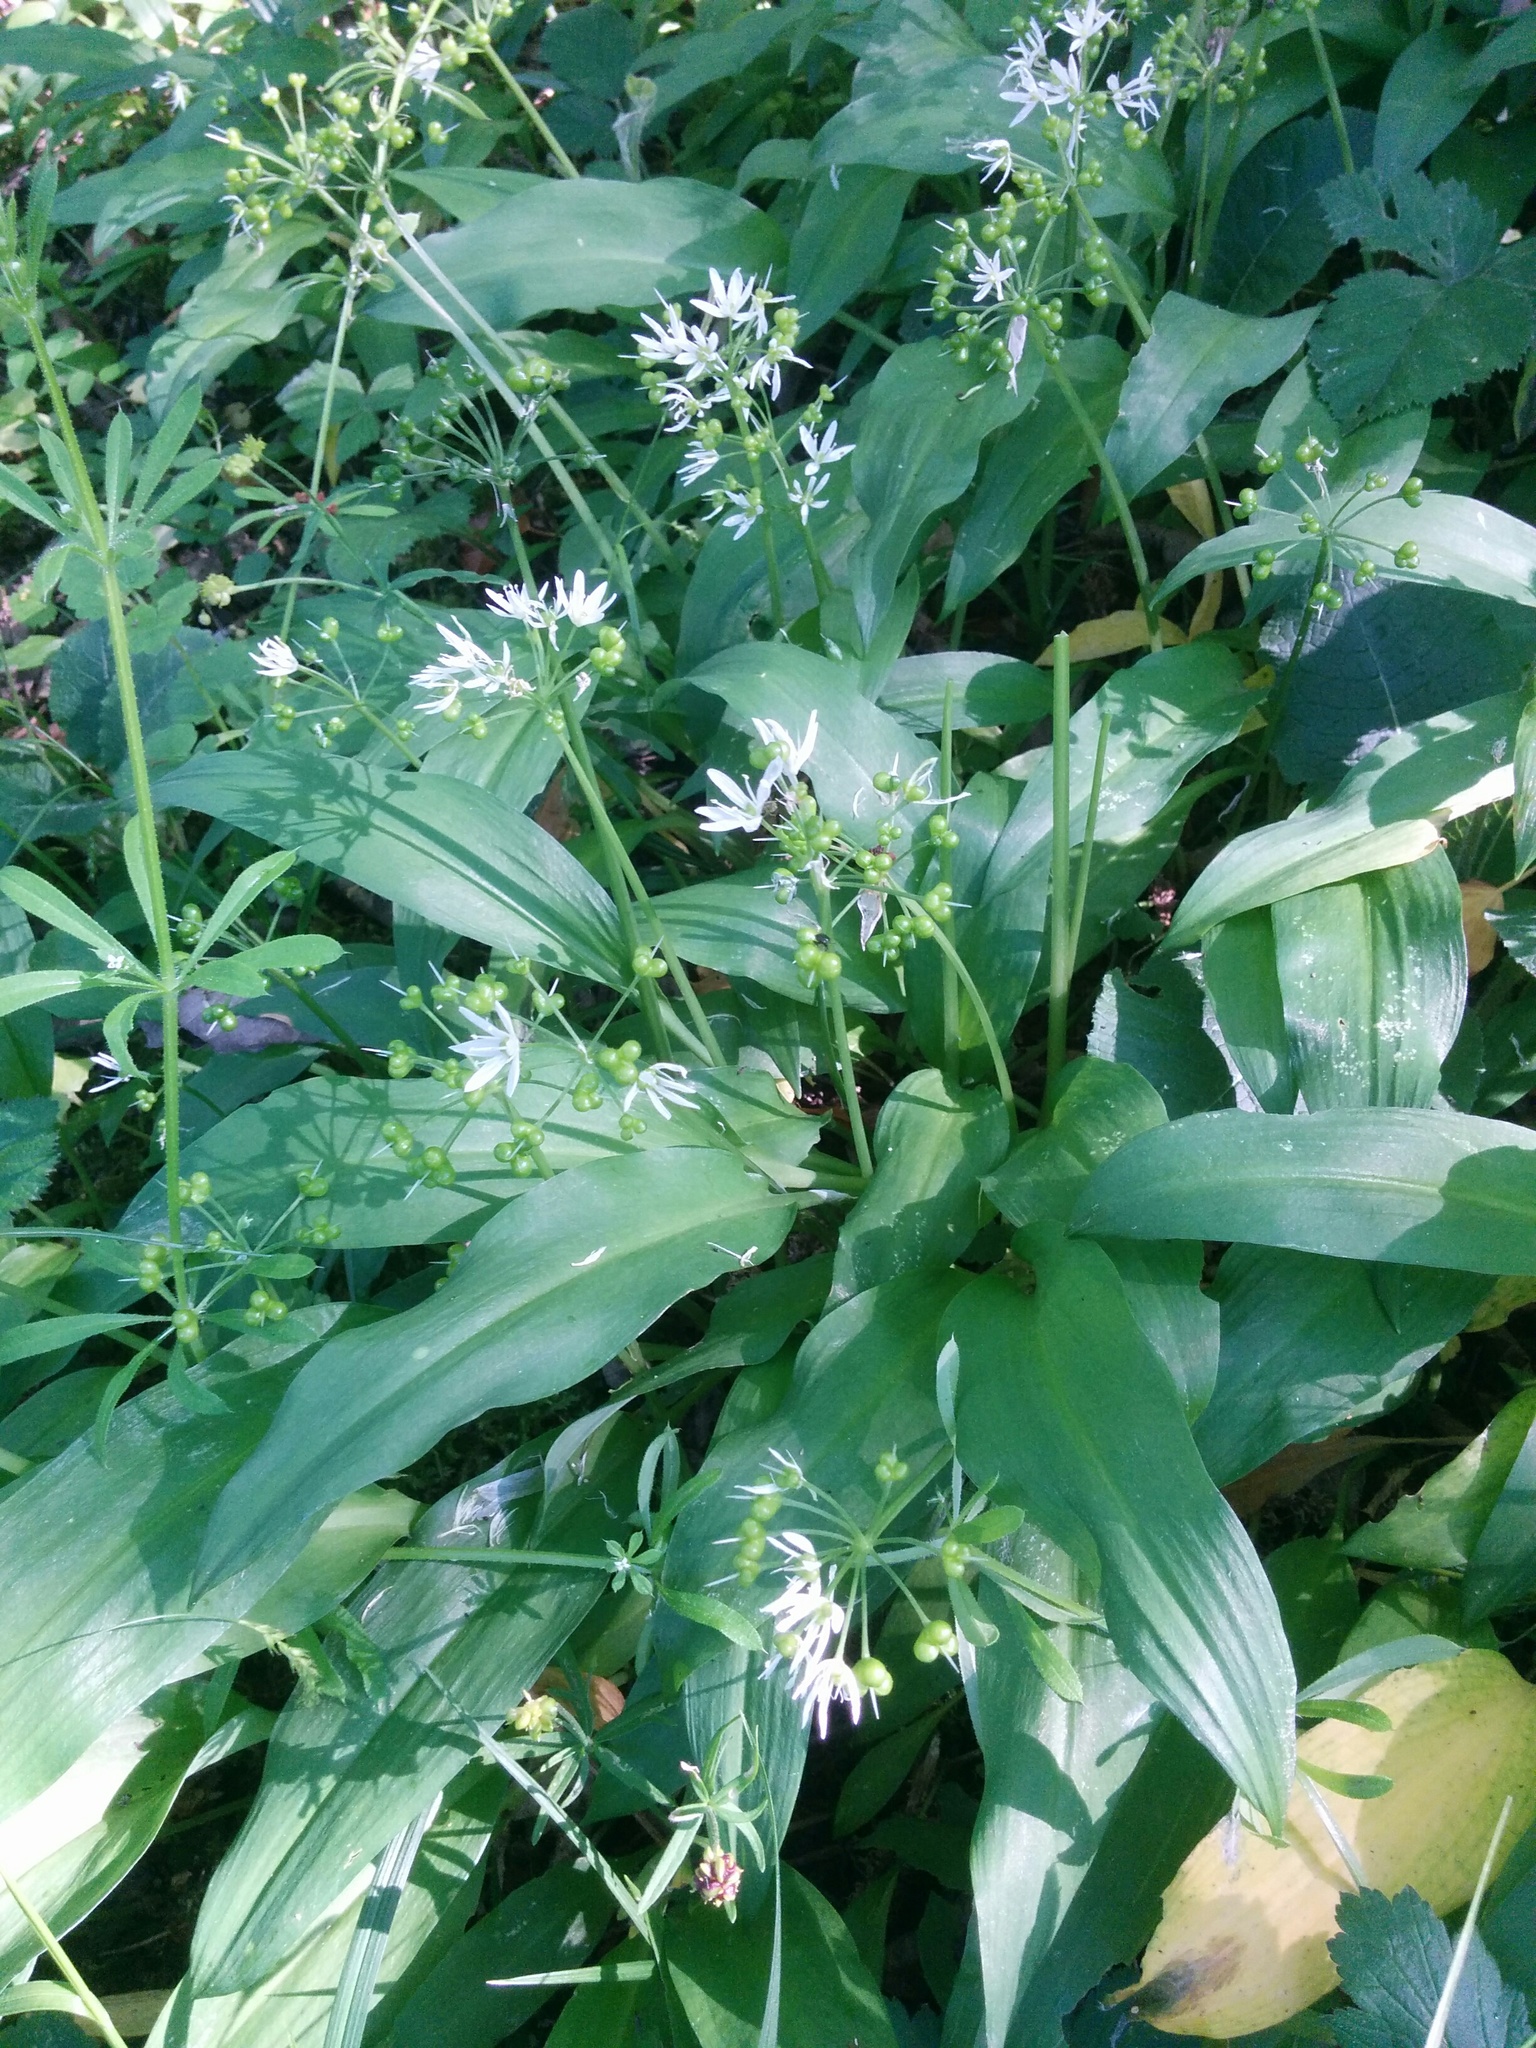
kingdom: Plantae
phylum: Tracheophyta
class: Liliopsida
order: Asparagales
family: Amaryllidaceae
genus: Allium
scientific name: Allium ursinum
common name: Ramsons
